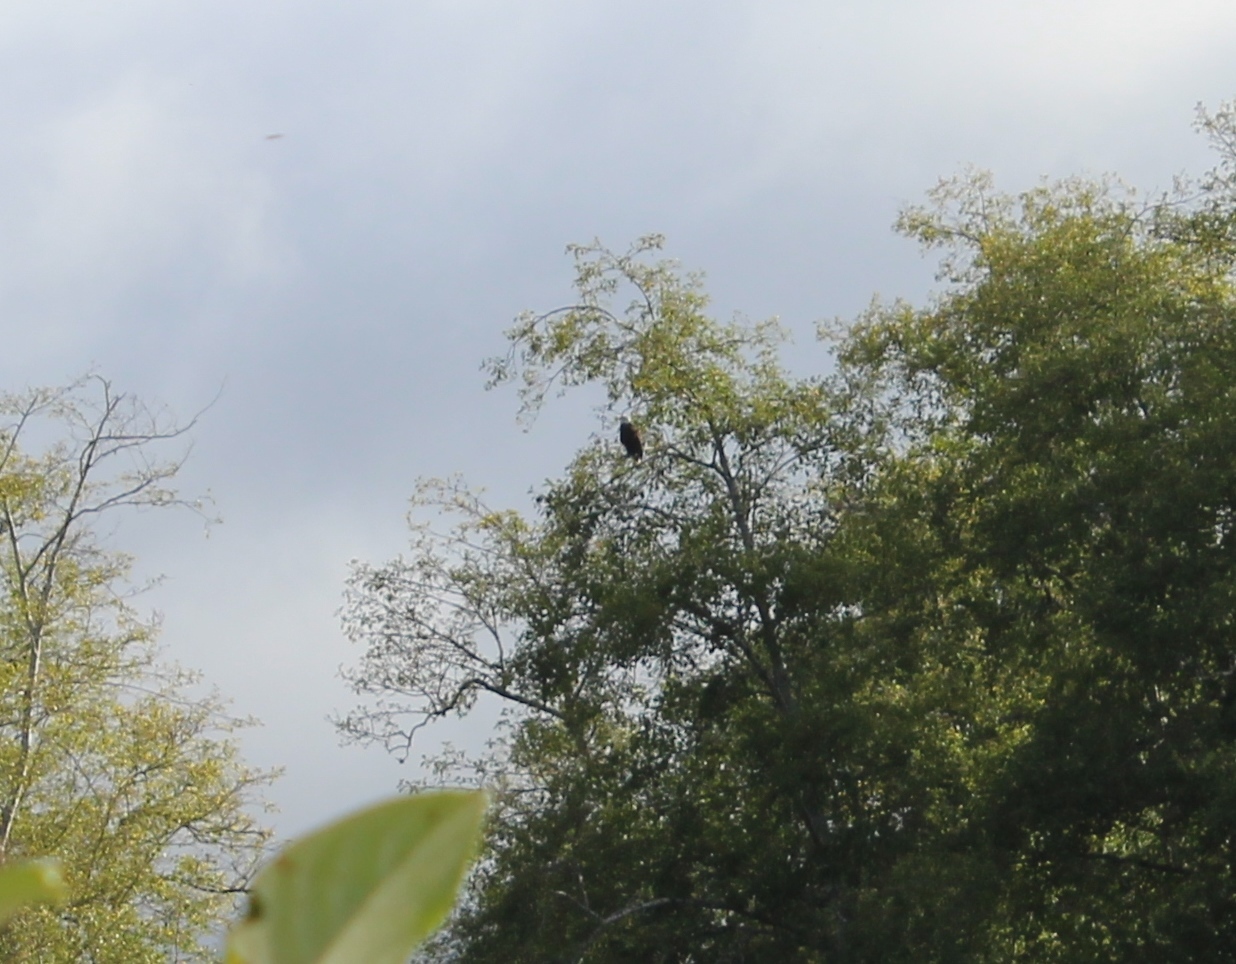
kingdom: Animalia
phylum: Chordata
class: Aves
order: Accipitriformes
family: Accipitridae
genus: Haliaeetus
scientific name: Haliaeetus leucocephalus
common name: Bald eagle
